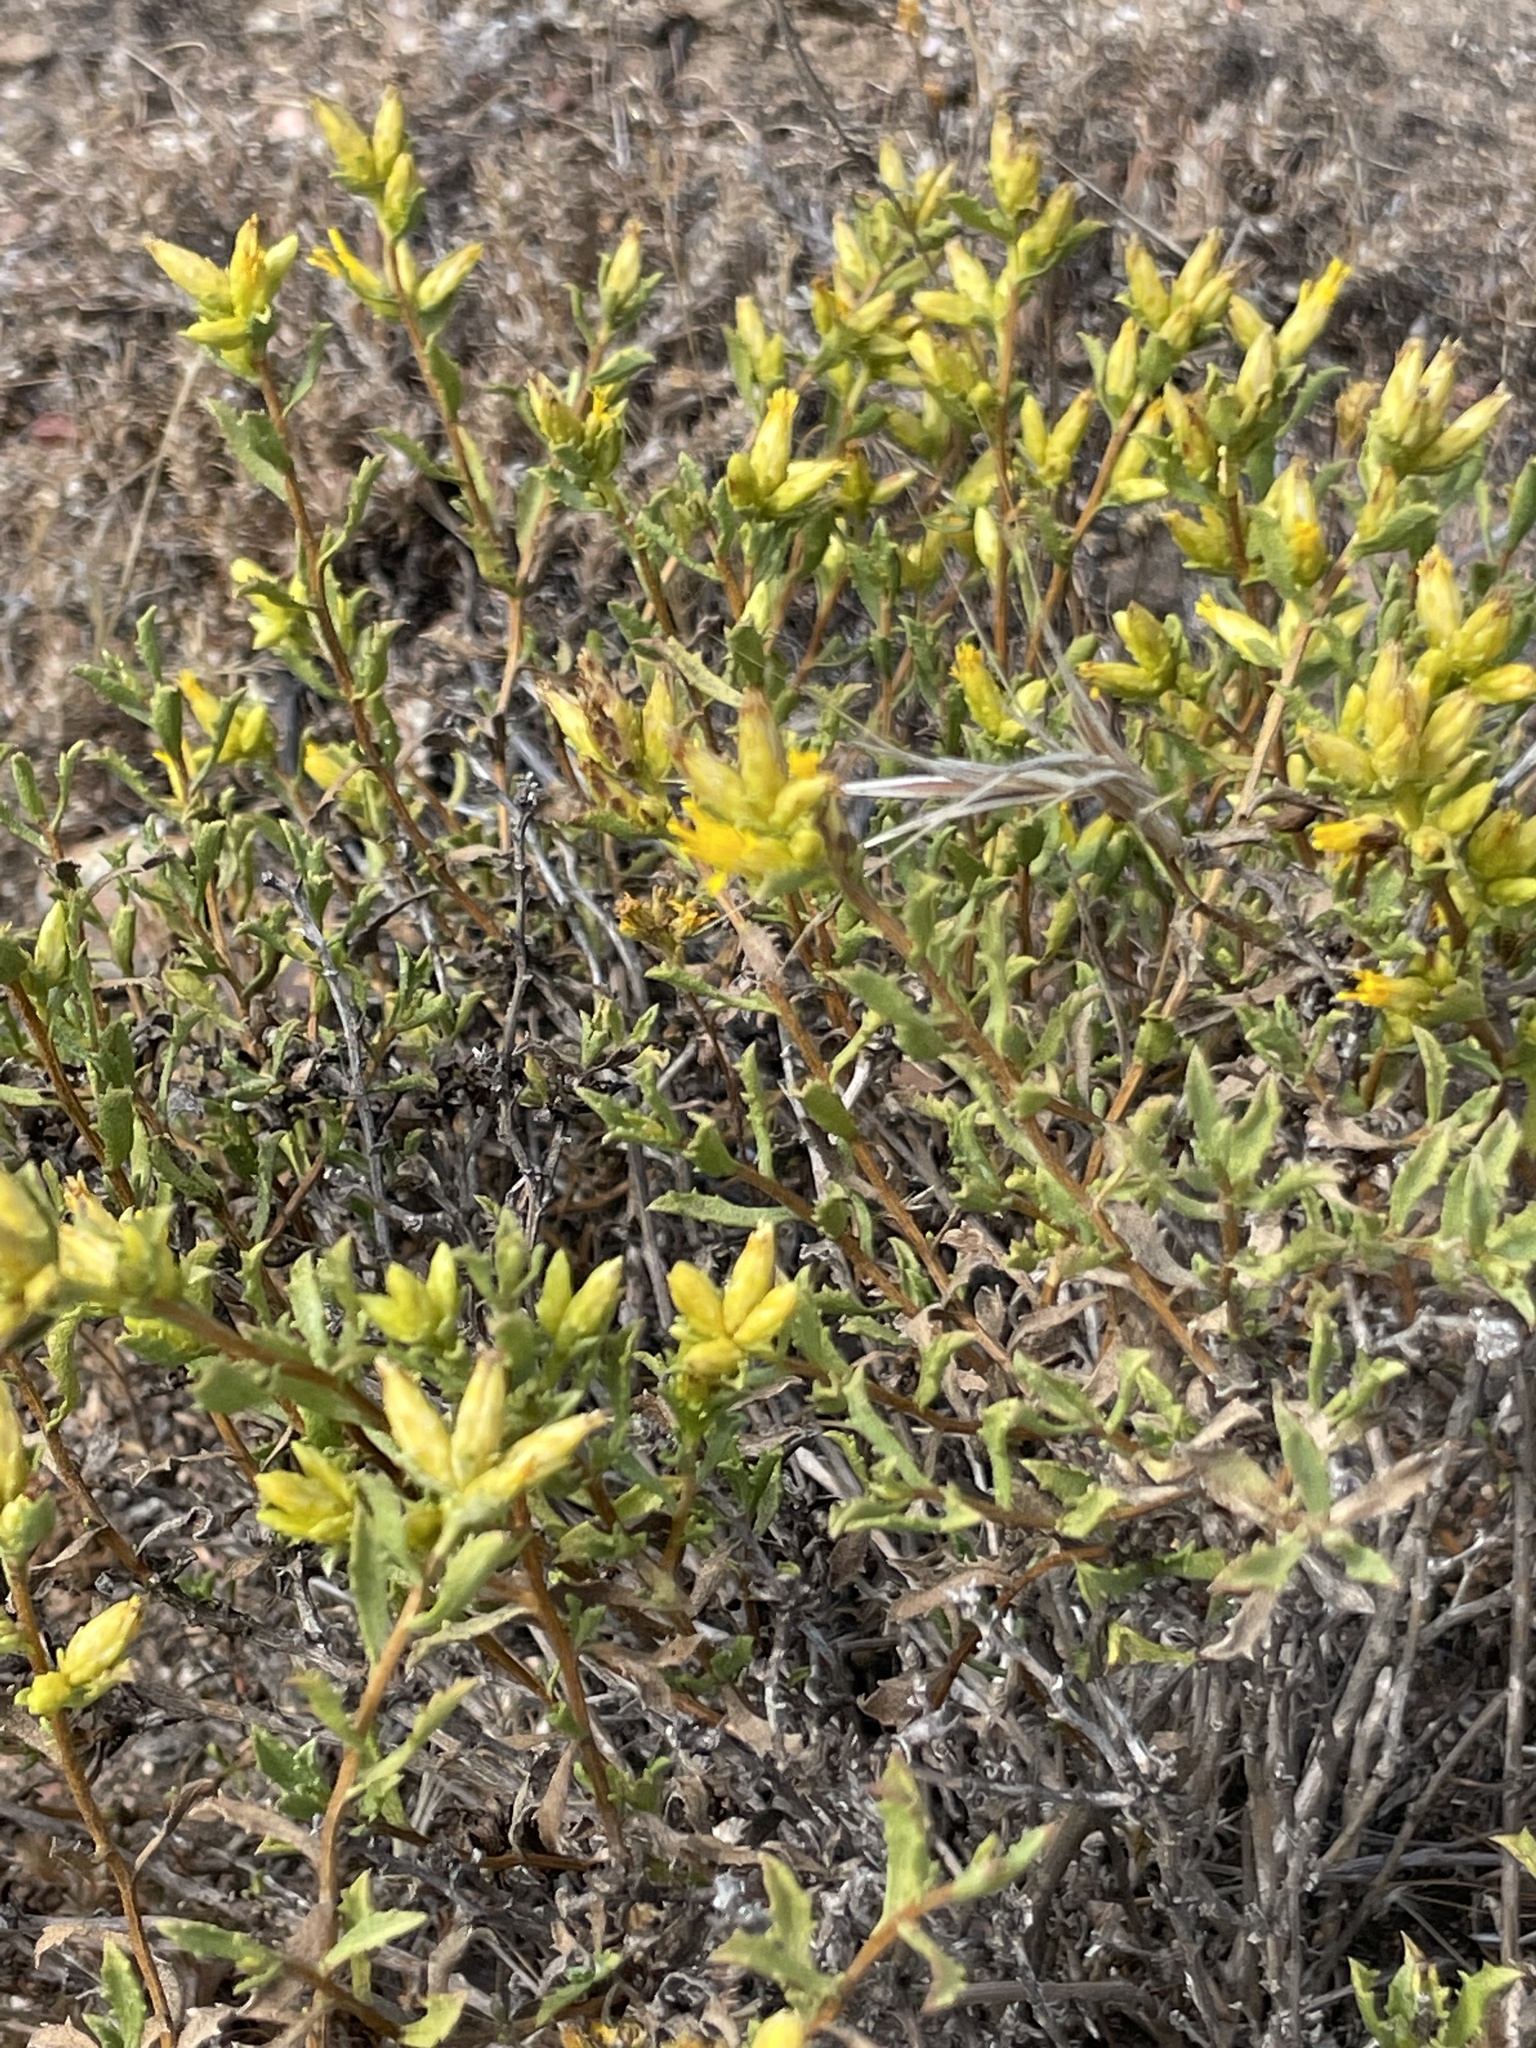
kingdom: Plantae
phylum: Tracheophyta
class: Magnoliopsida
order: Asterales
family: Asteraceae
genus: Hazardia
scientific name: Hazardia ferrisiae
